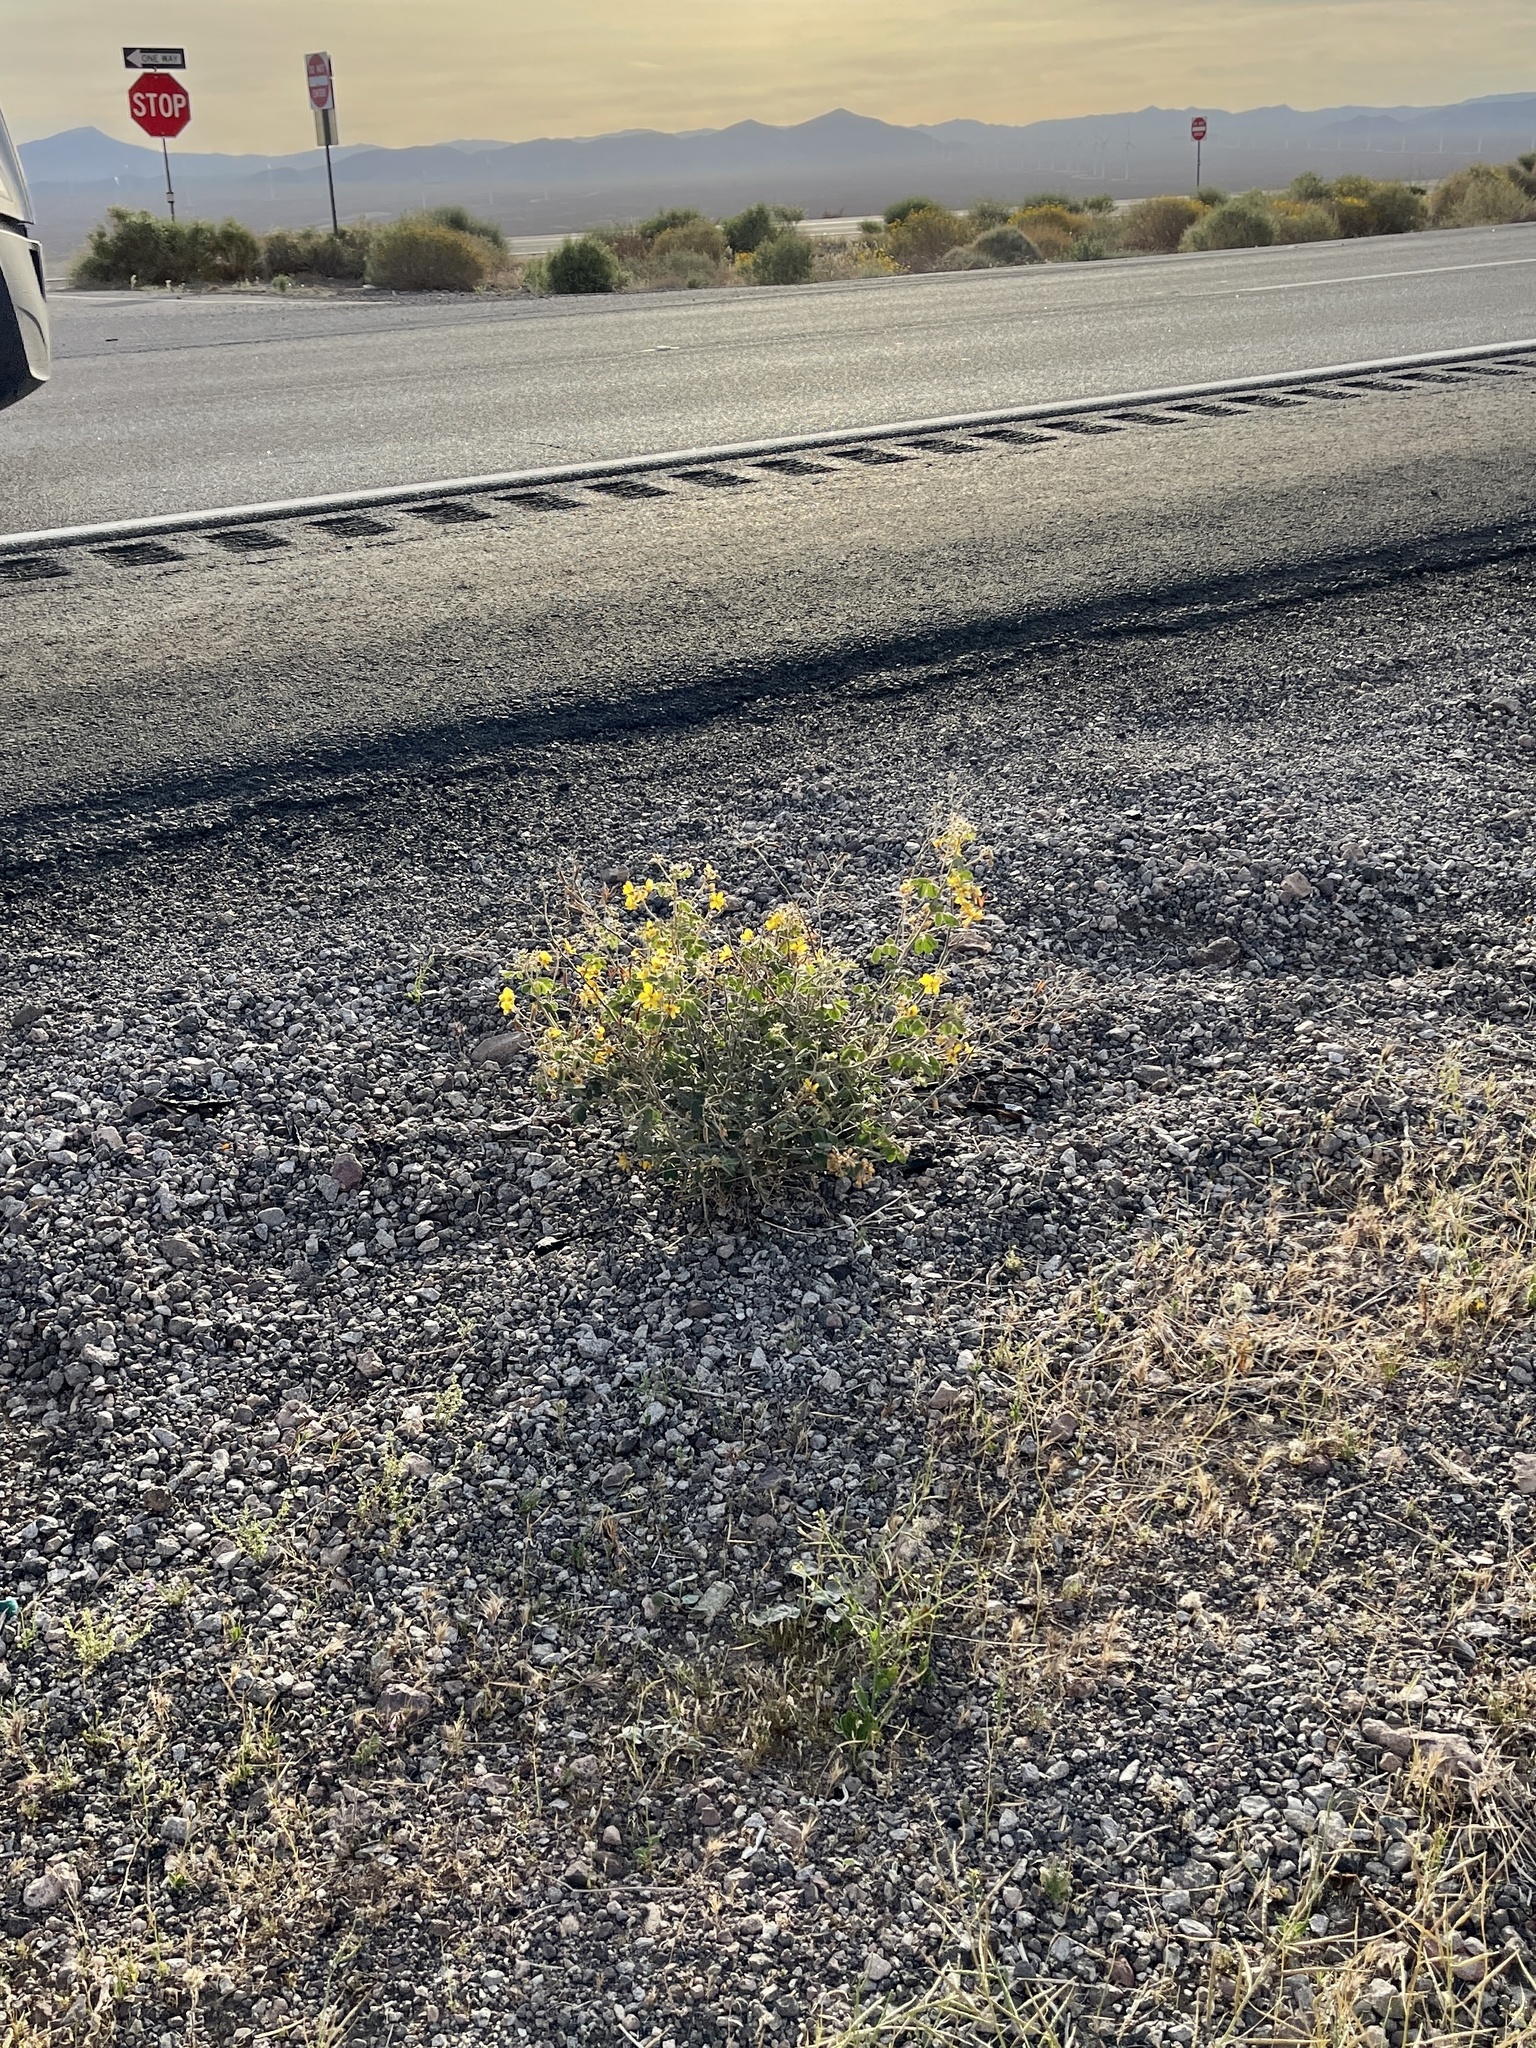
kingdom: Plantae
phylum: Tracheophyta
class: Magnoliopsida
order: Fabales
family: Fabaceae
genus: Senna
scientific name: Senna covesii
